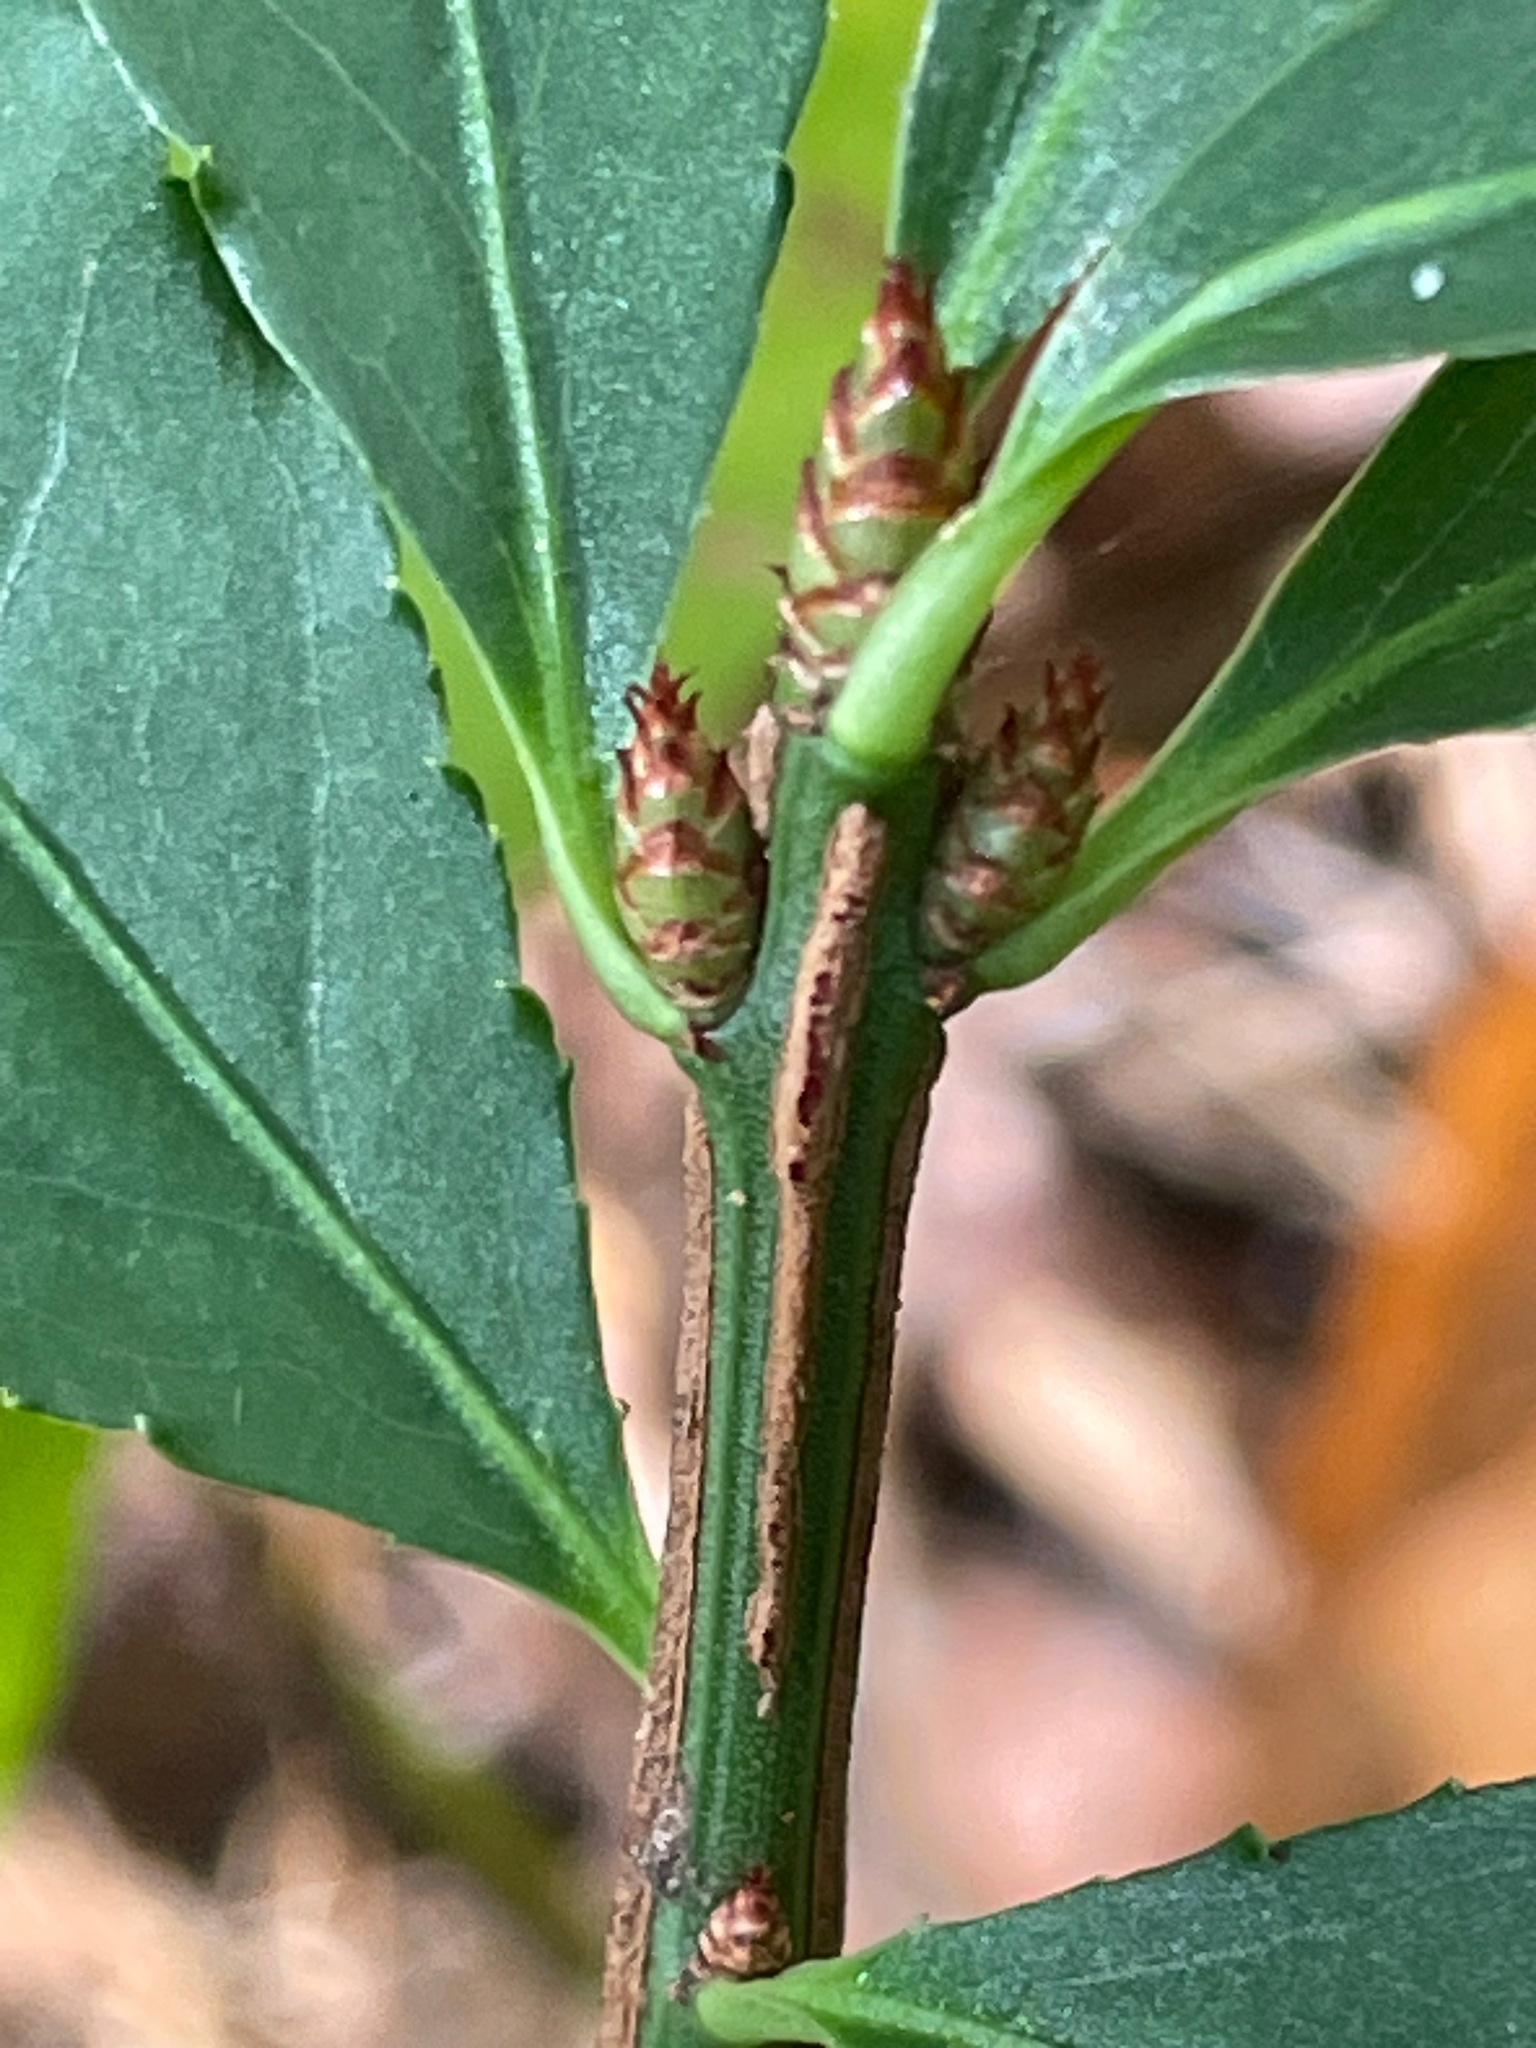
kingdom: Plantae
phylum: Tracheophyta
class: Magnoliopsida
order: Celastrales
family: Celastraceae
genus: Euonymus
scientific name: Euonymus alatus
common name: Winged euonymus
